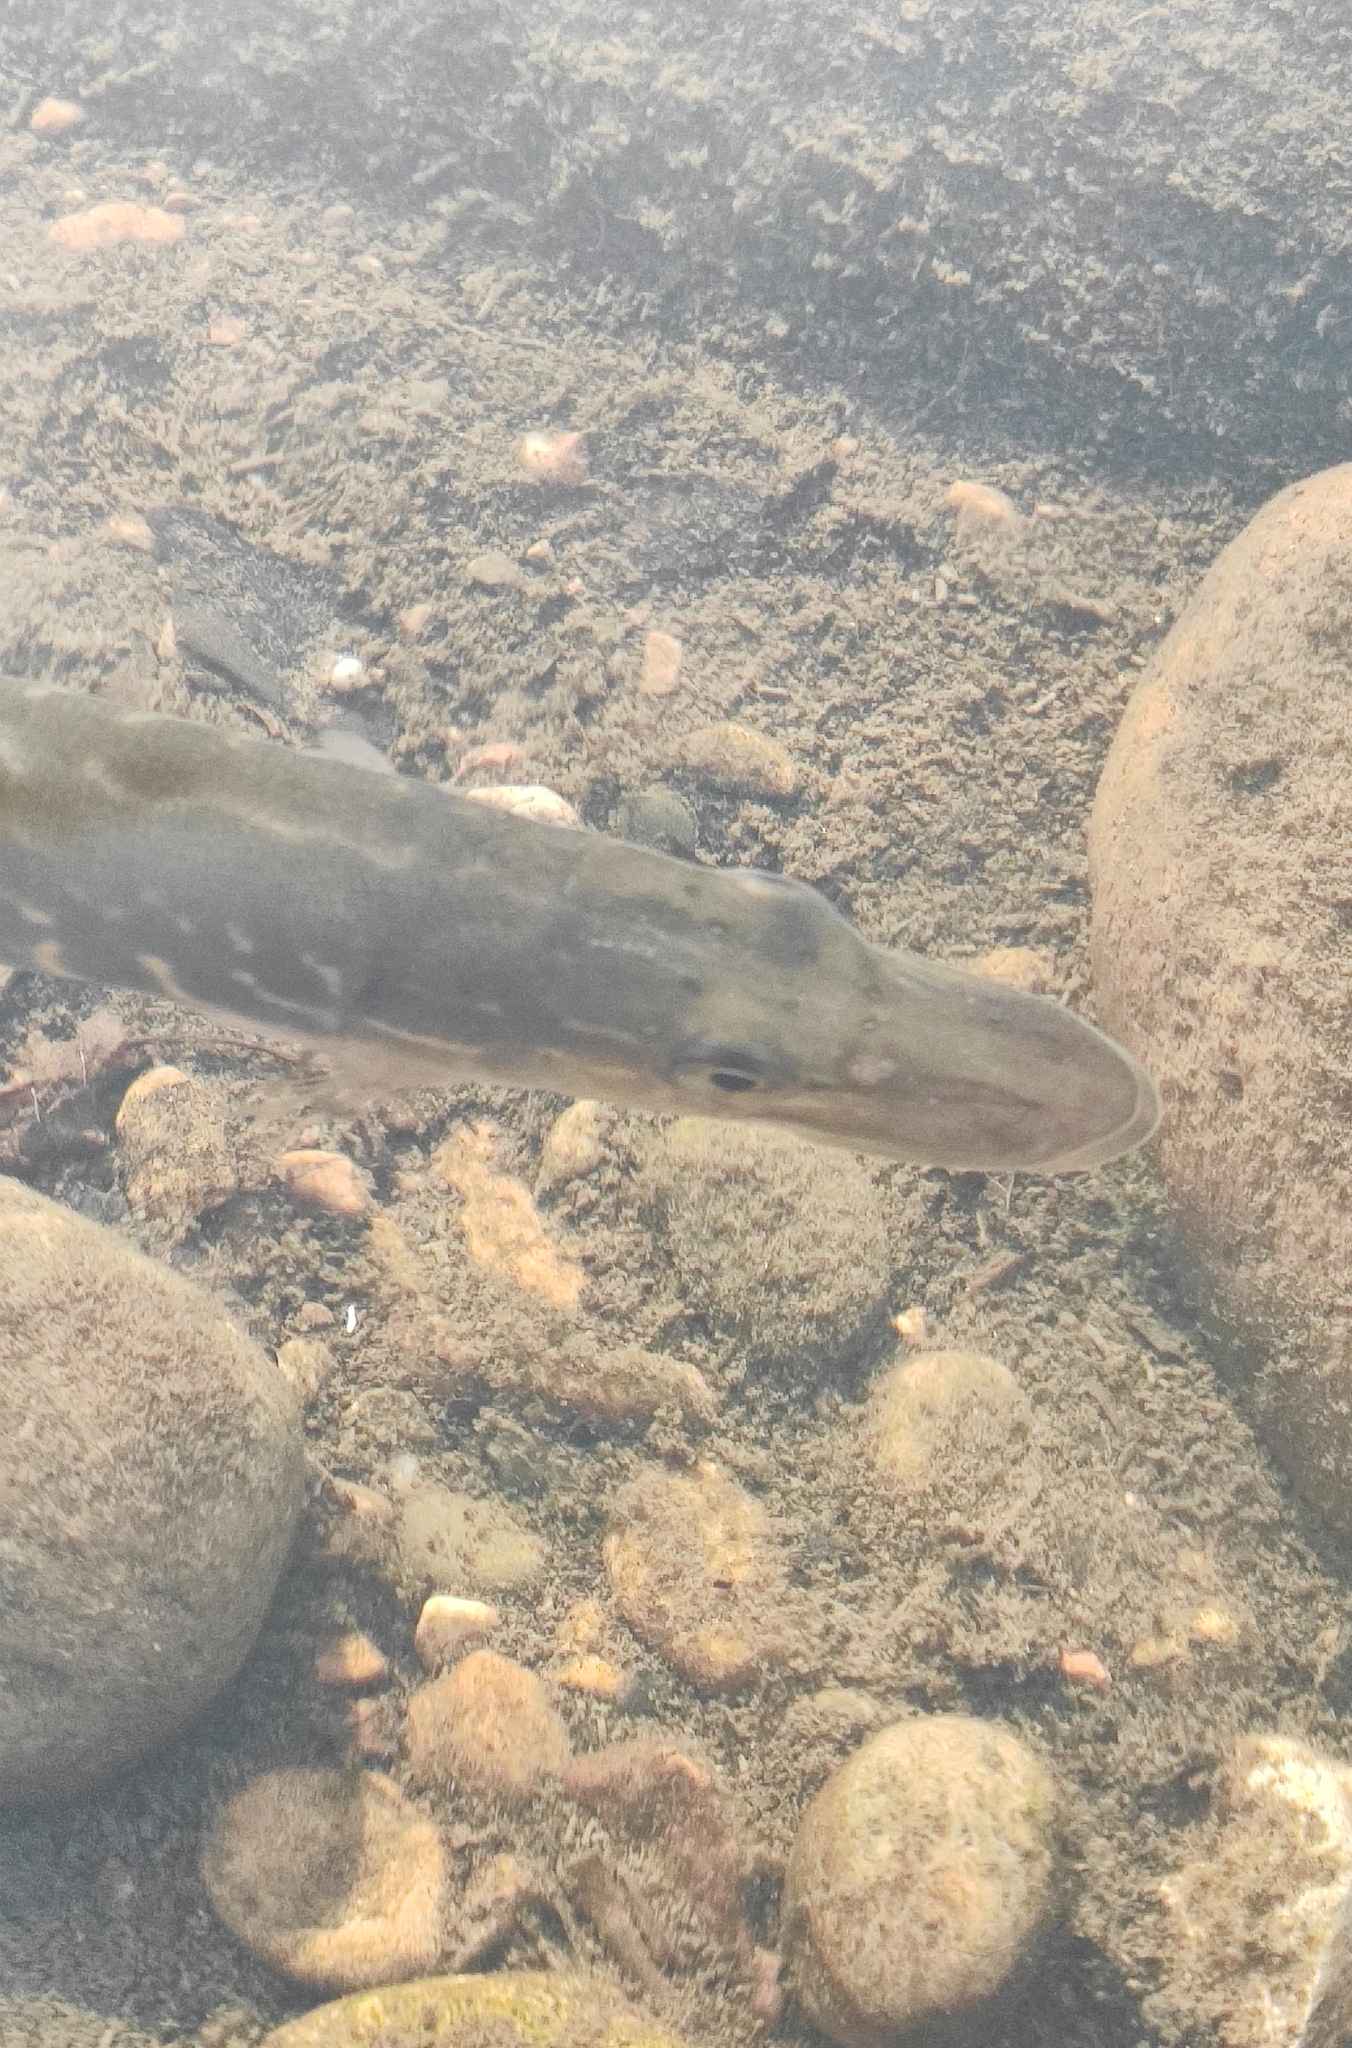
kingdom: Animalia
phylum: Chordata
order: Esociformes
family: Esocidae
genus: Esox
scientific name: Esox lucius
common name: Northern pike
